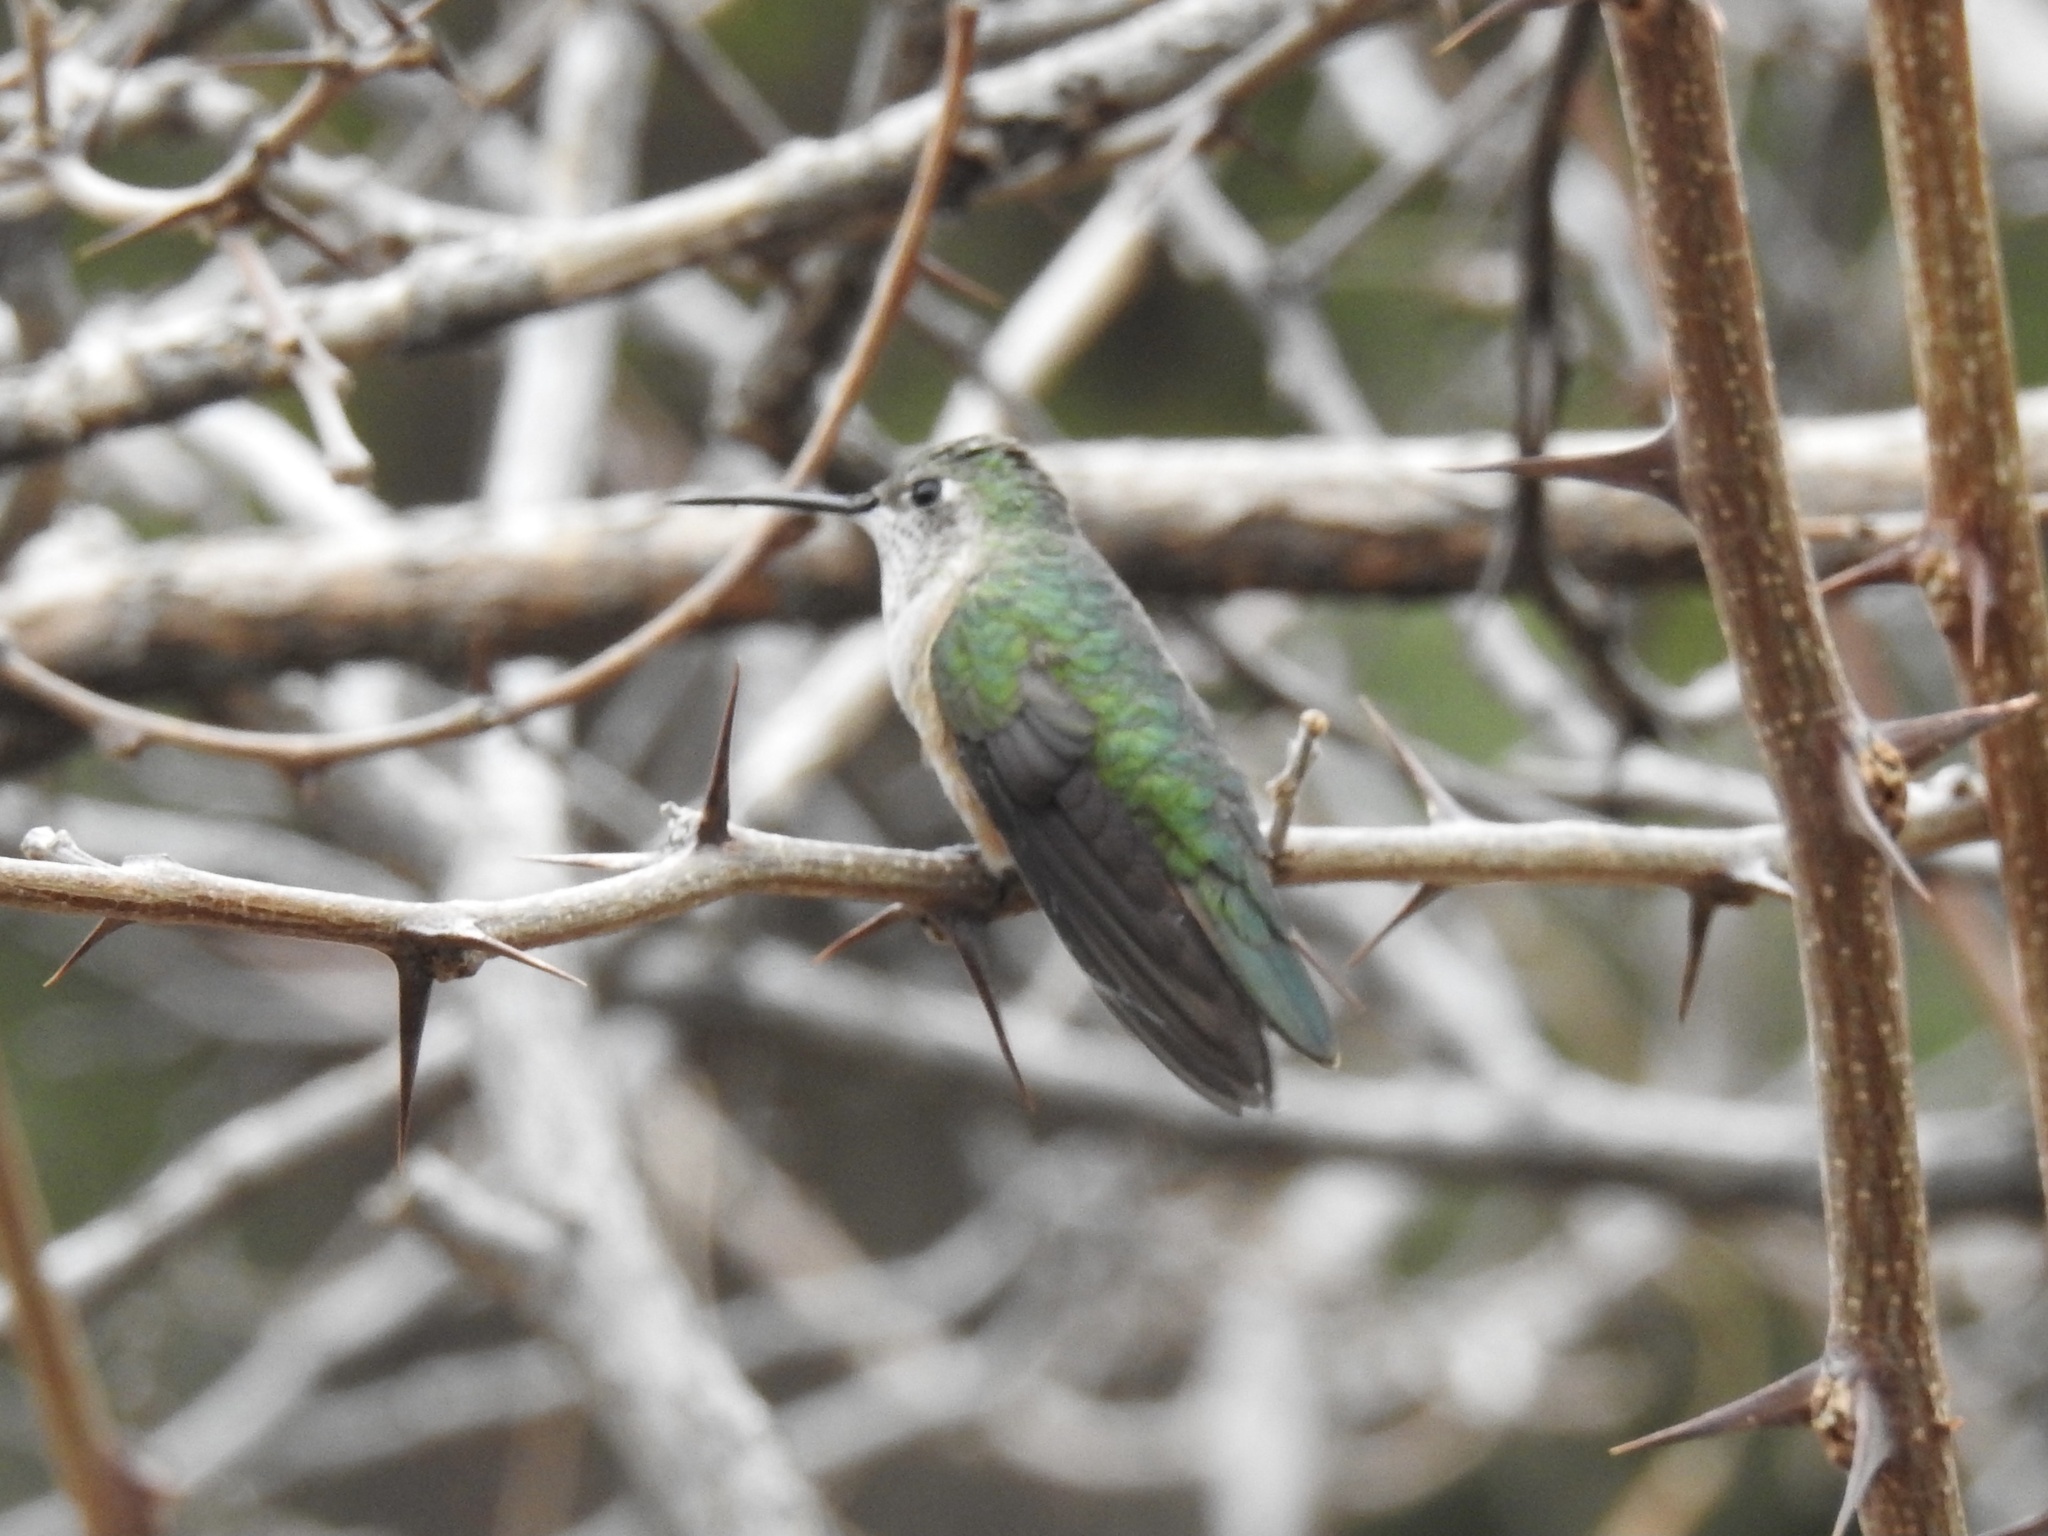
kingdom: Animalia
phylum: Chordata
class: Aves
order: Apodiformes
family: Trochilidae
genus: Selasphorus
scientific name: Selasphorus platycercus
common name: Broad-tailed hummingbird
